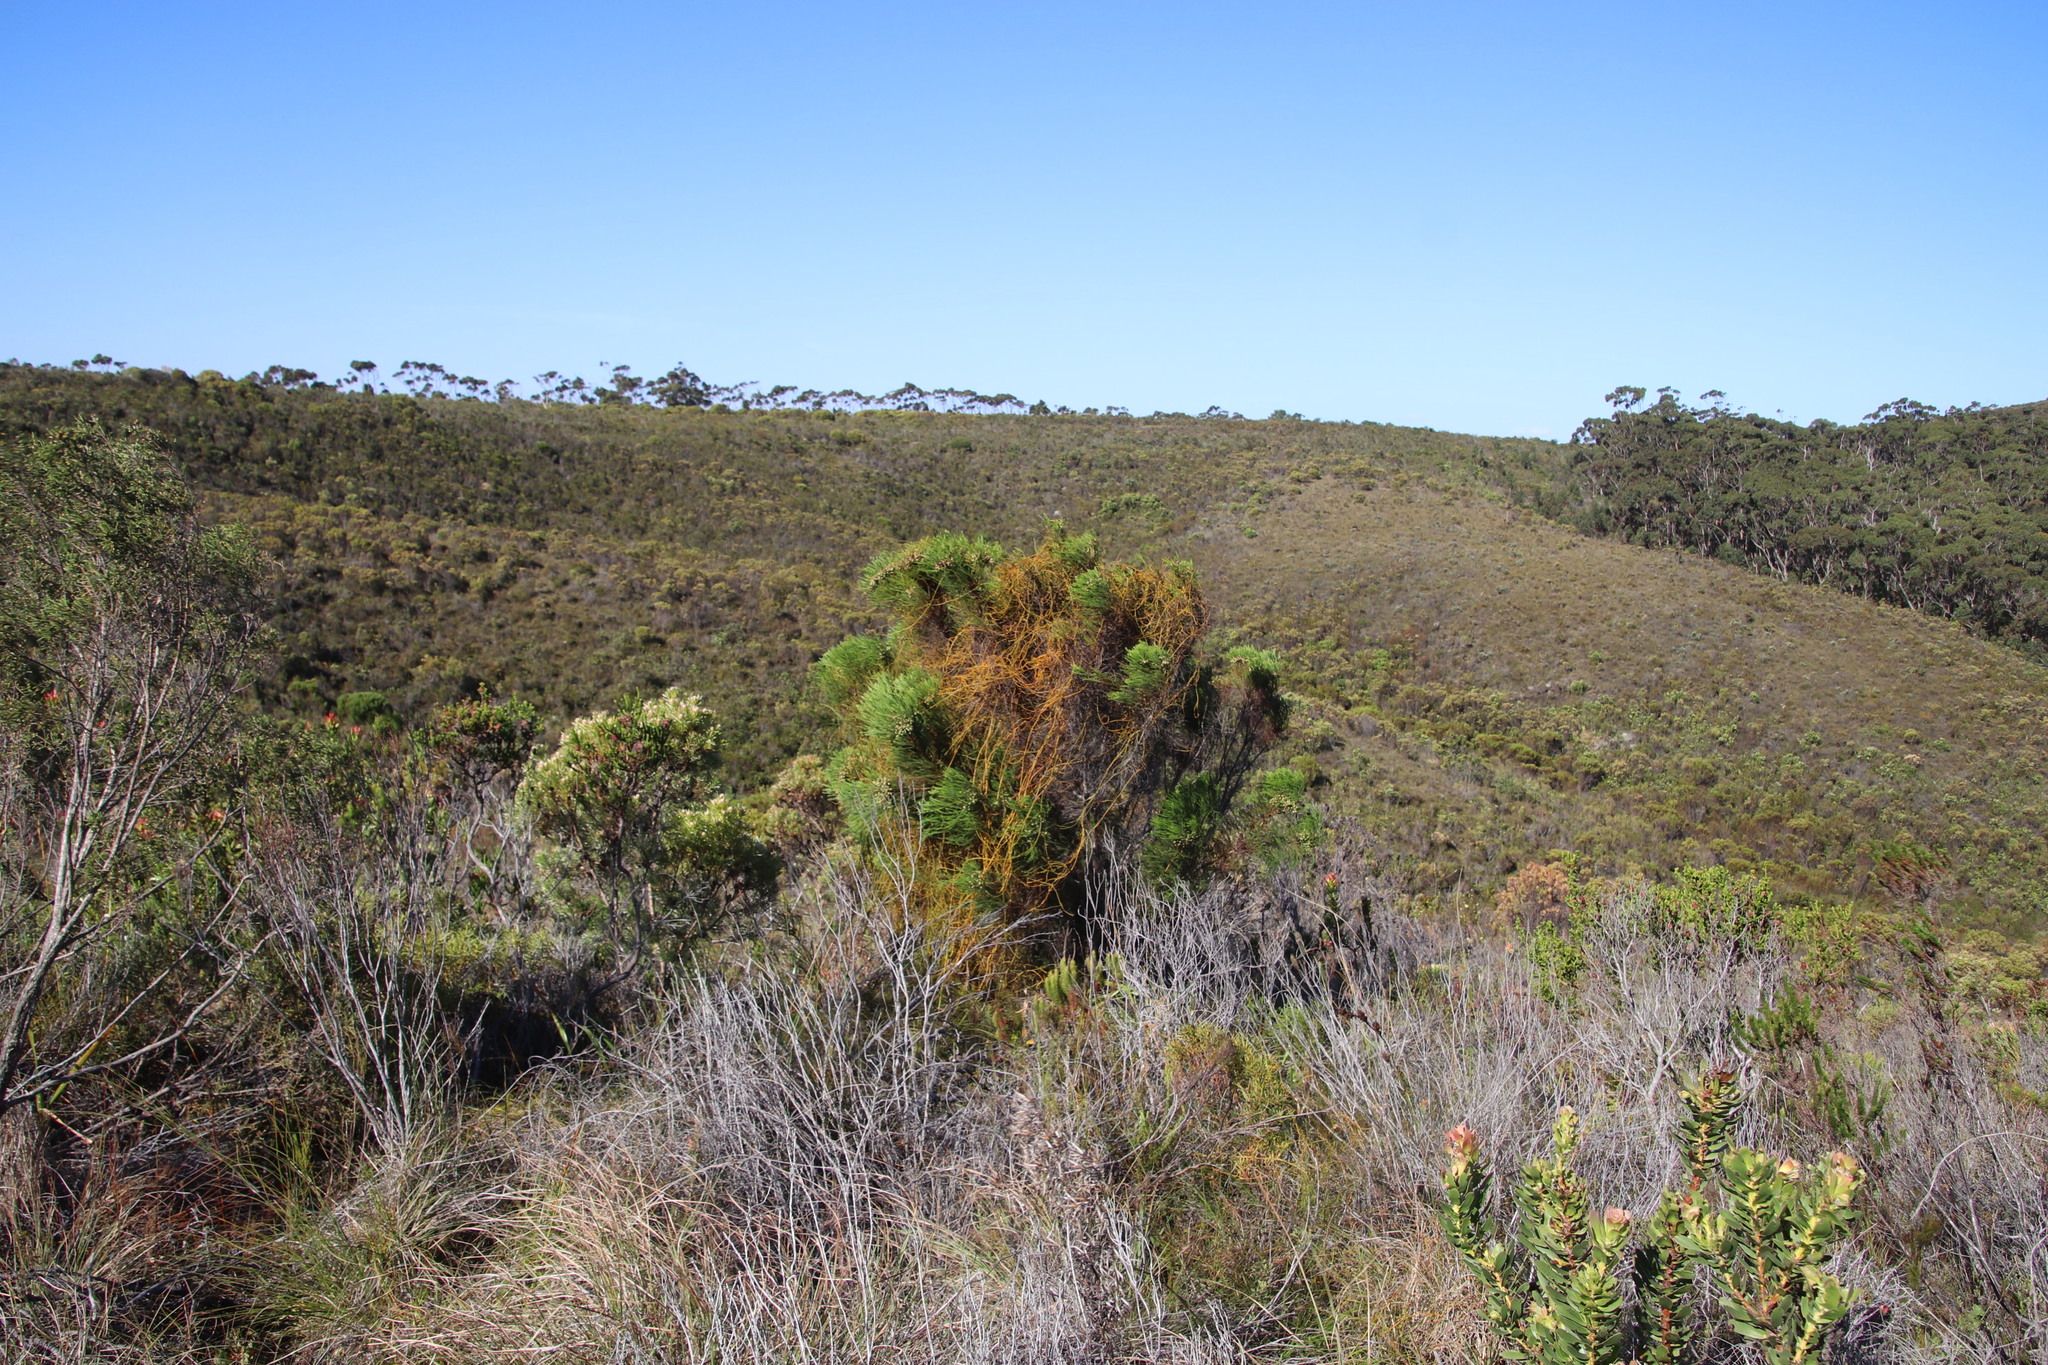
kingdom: Plantae
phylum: Tracheophyta
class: Magnoliopsida
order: Bruniales
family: Bruniaceae
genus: Berzelia
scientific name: Berzelia lanuginosa
